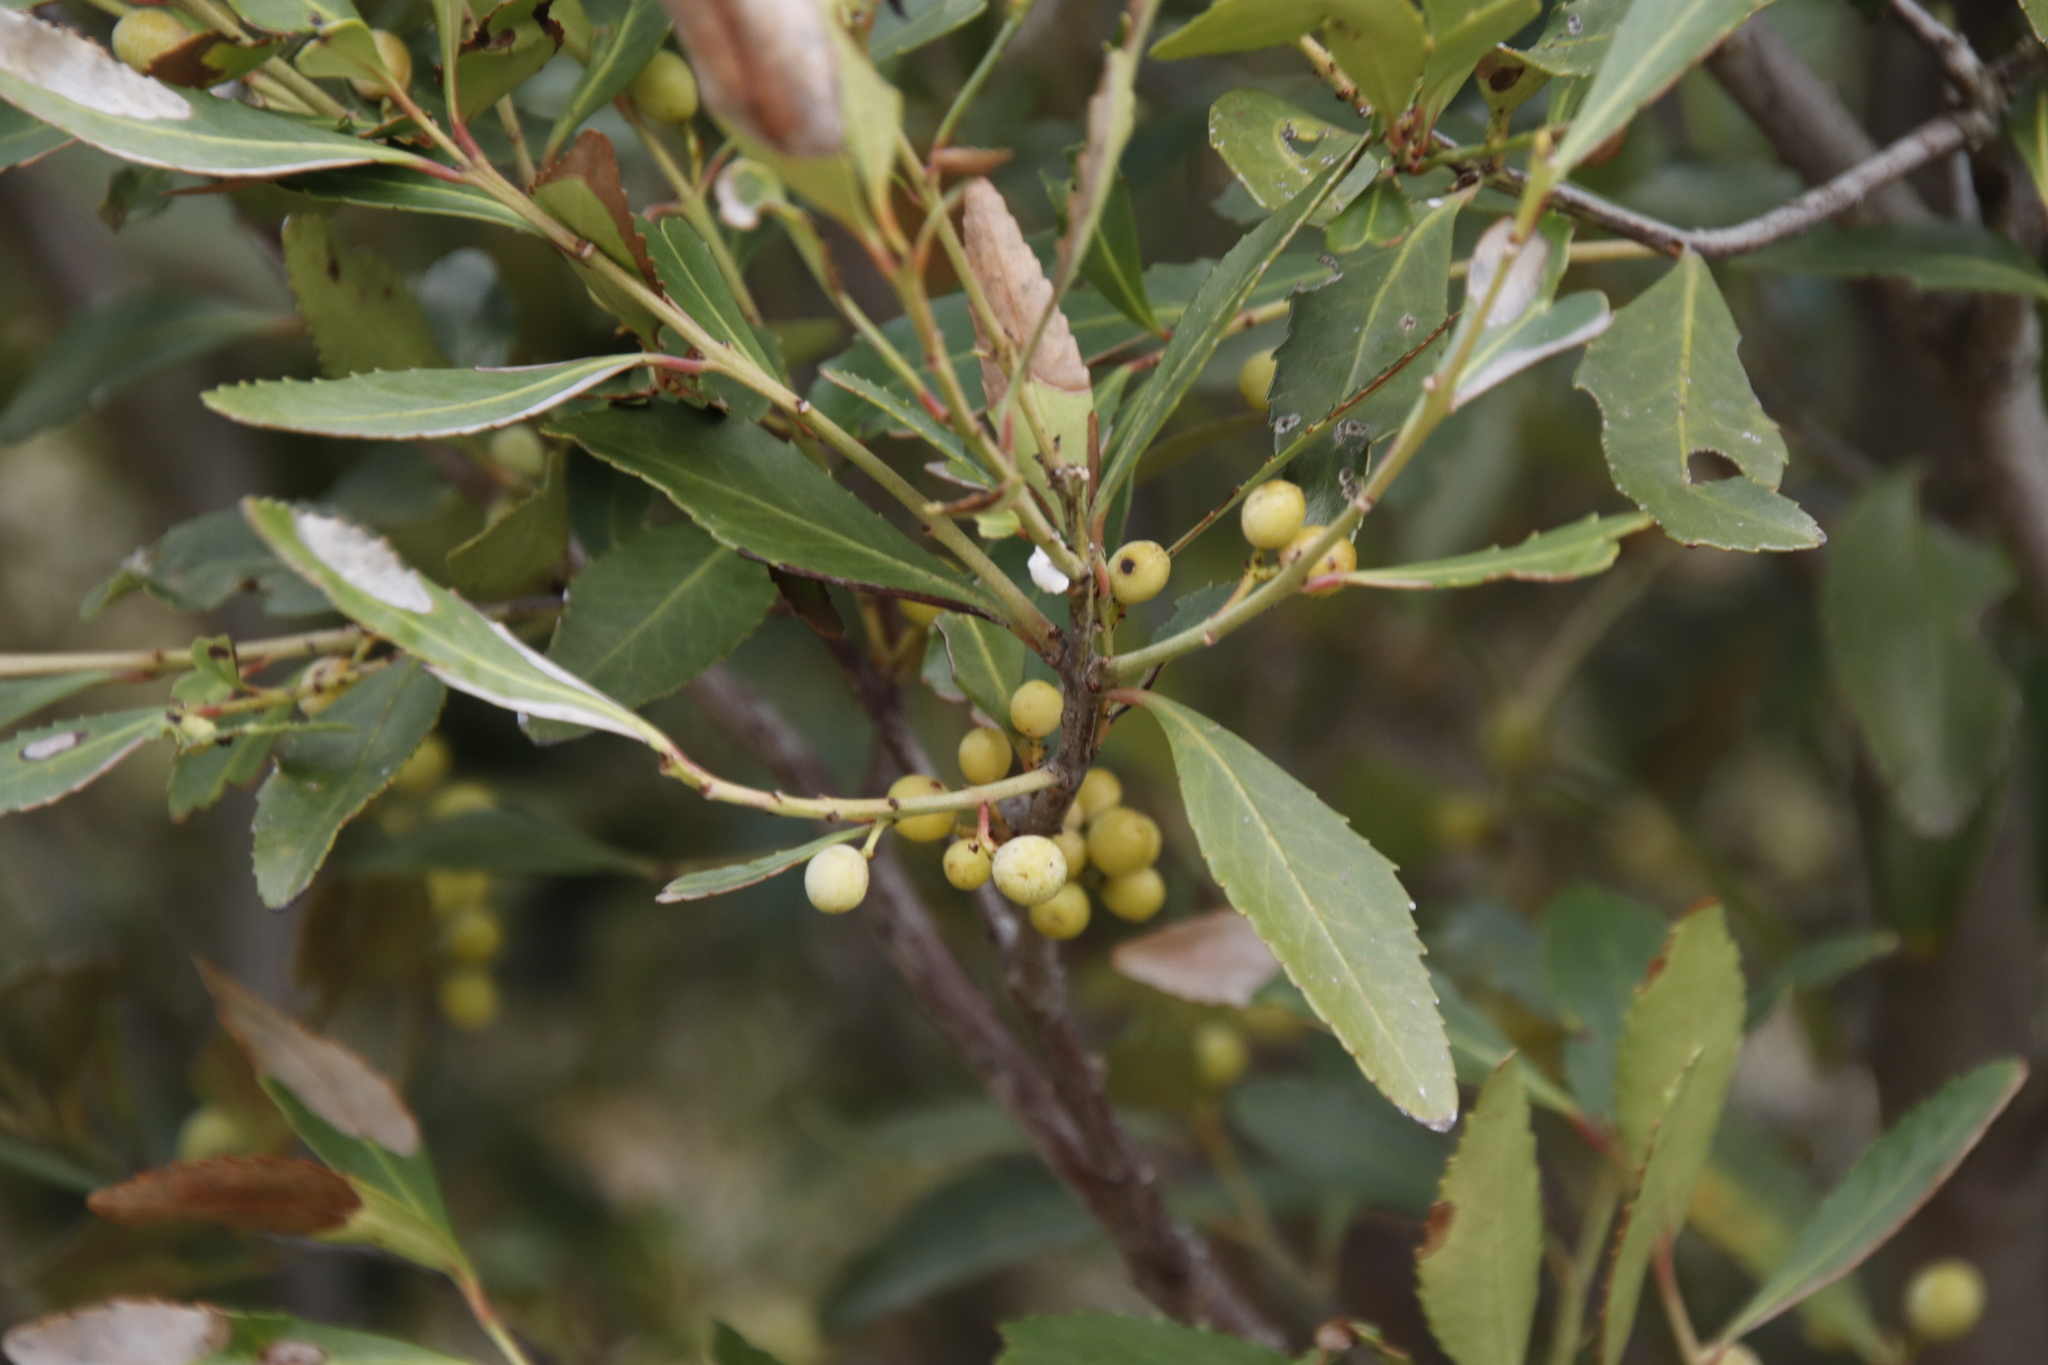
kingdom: Plantae
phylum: Tracheophyta
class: Magnoliopsida
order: Celastrales
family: Celastraceae
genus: Elaeodendron
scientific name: Elaeodendron schinoides
